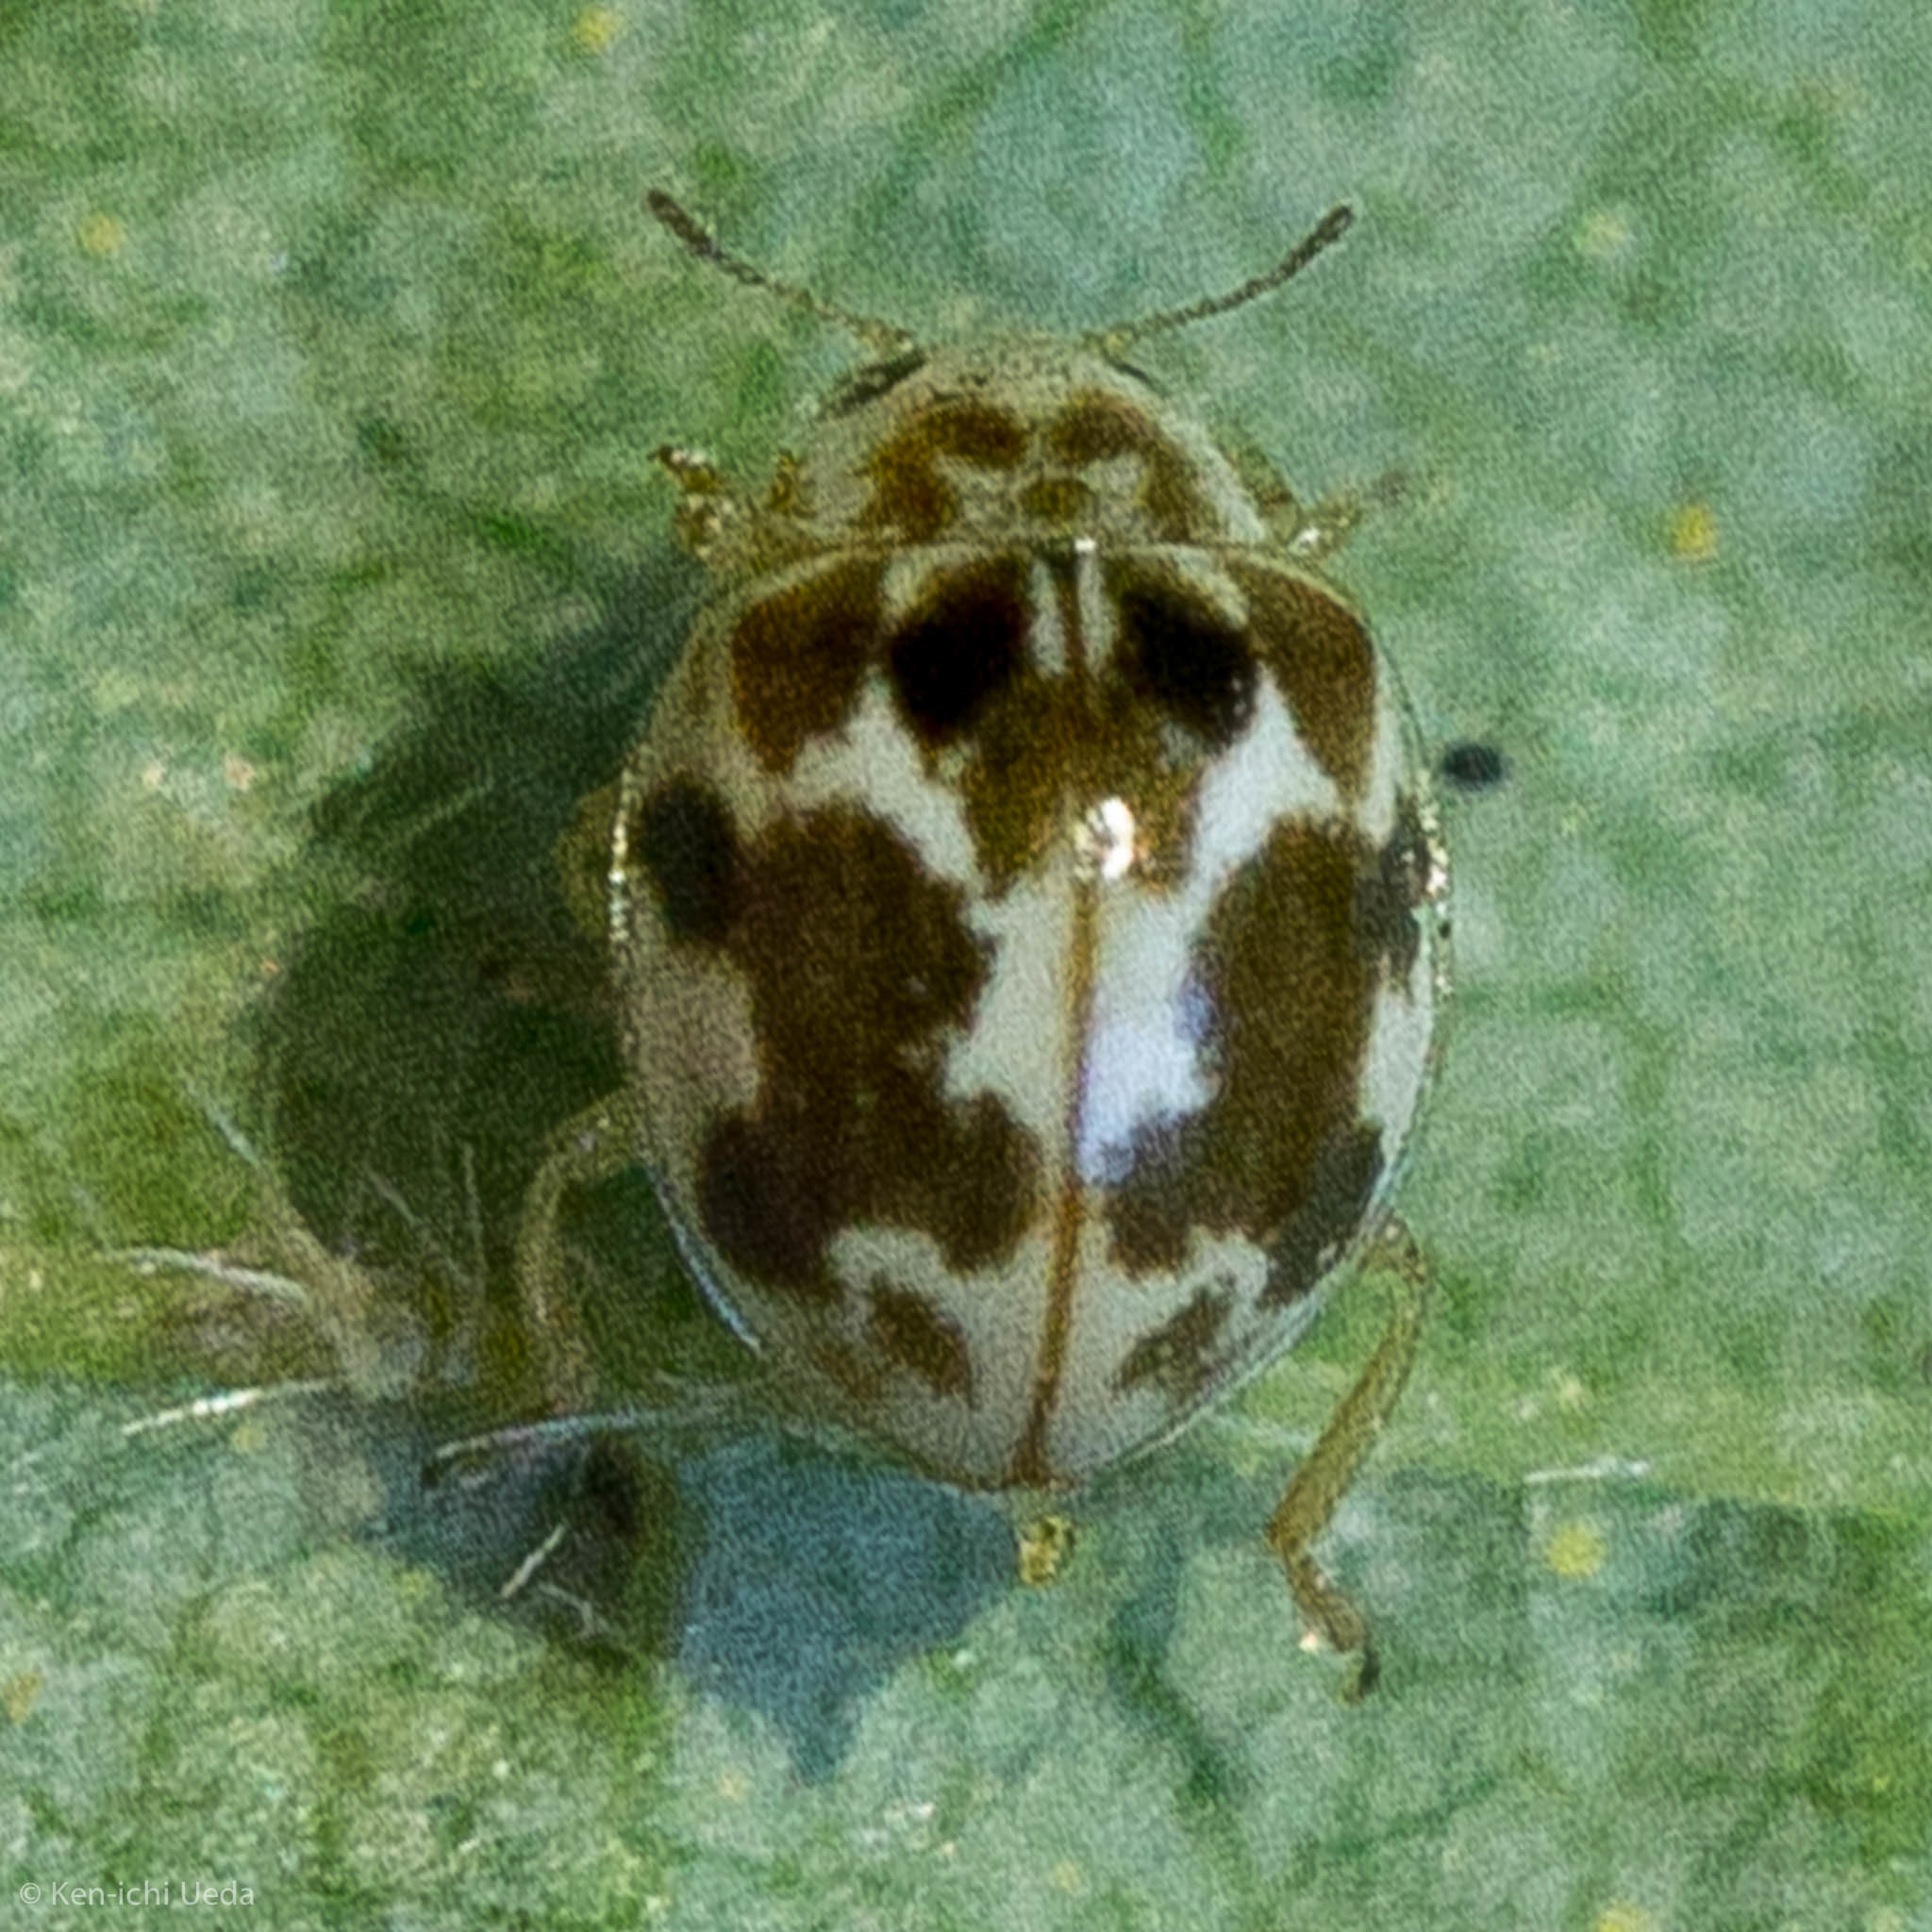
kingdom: Animalia
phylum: Arthropoda
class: Insecta
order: Coleoptera
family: Coccinellidae
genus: Psyllobora
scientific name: Psyllobora vigintimaculata
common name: Ladybird beetle
